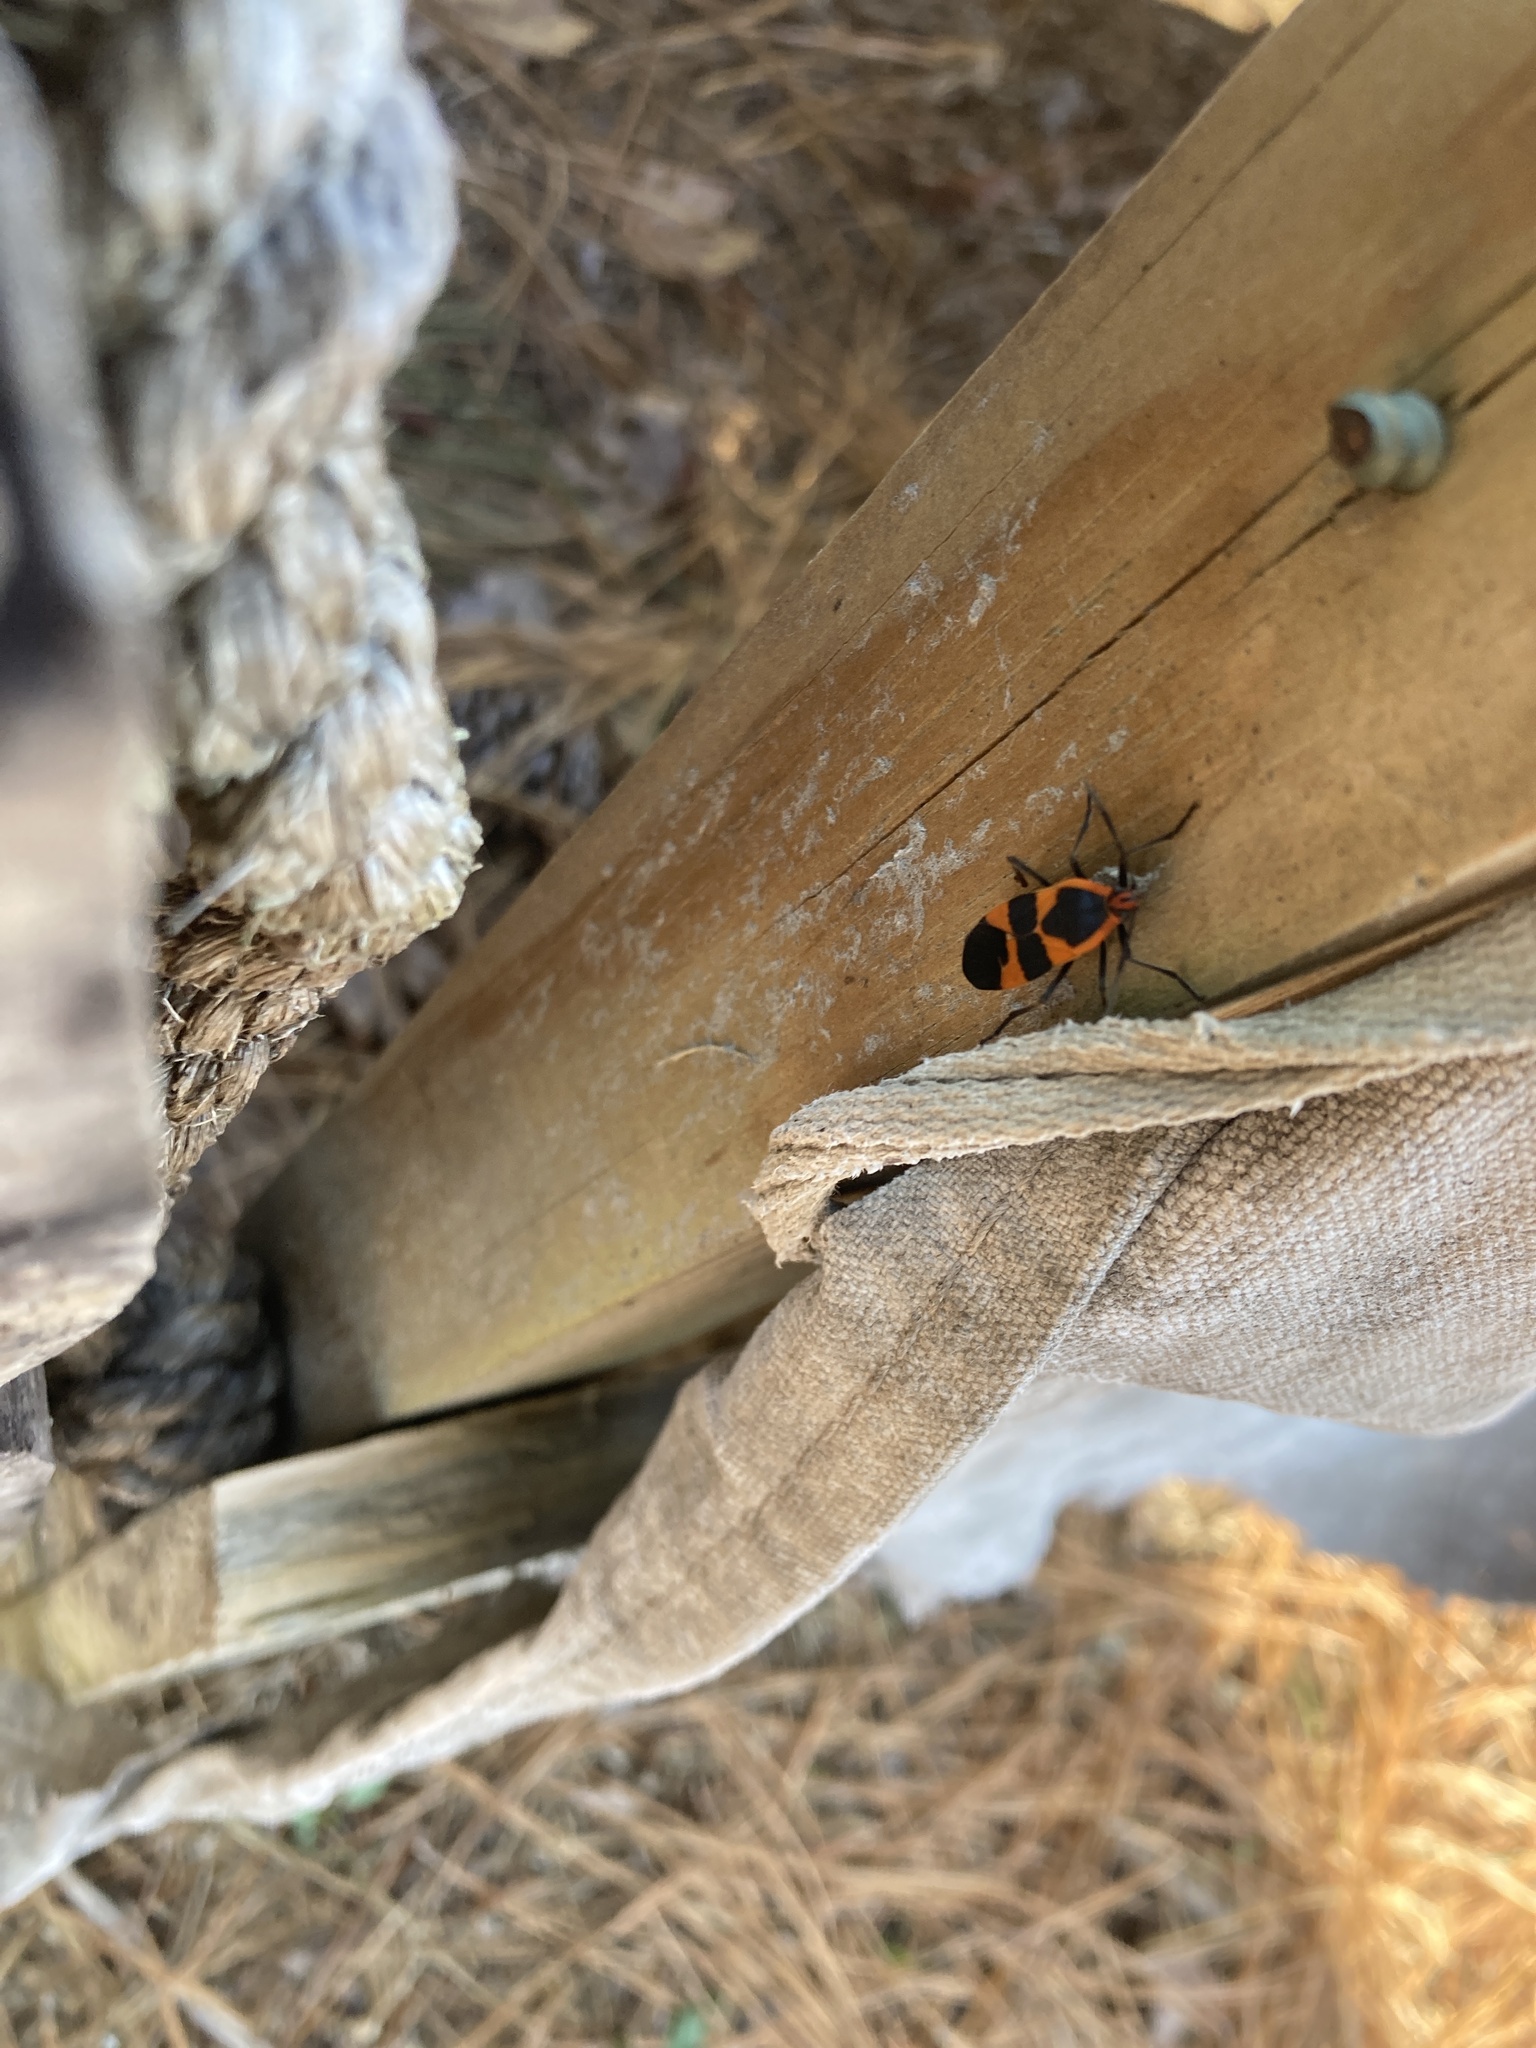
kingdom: Animalia
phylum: Arthropoda
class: Insecta
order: Hemiptera
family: Lygaeidae
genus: Oncopeltus
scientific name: Oncopeltus fasciatus
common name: Large milkweed bug
